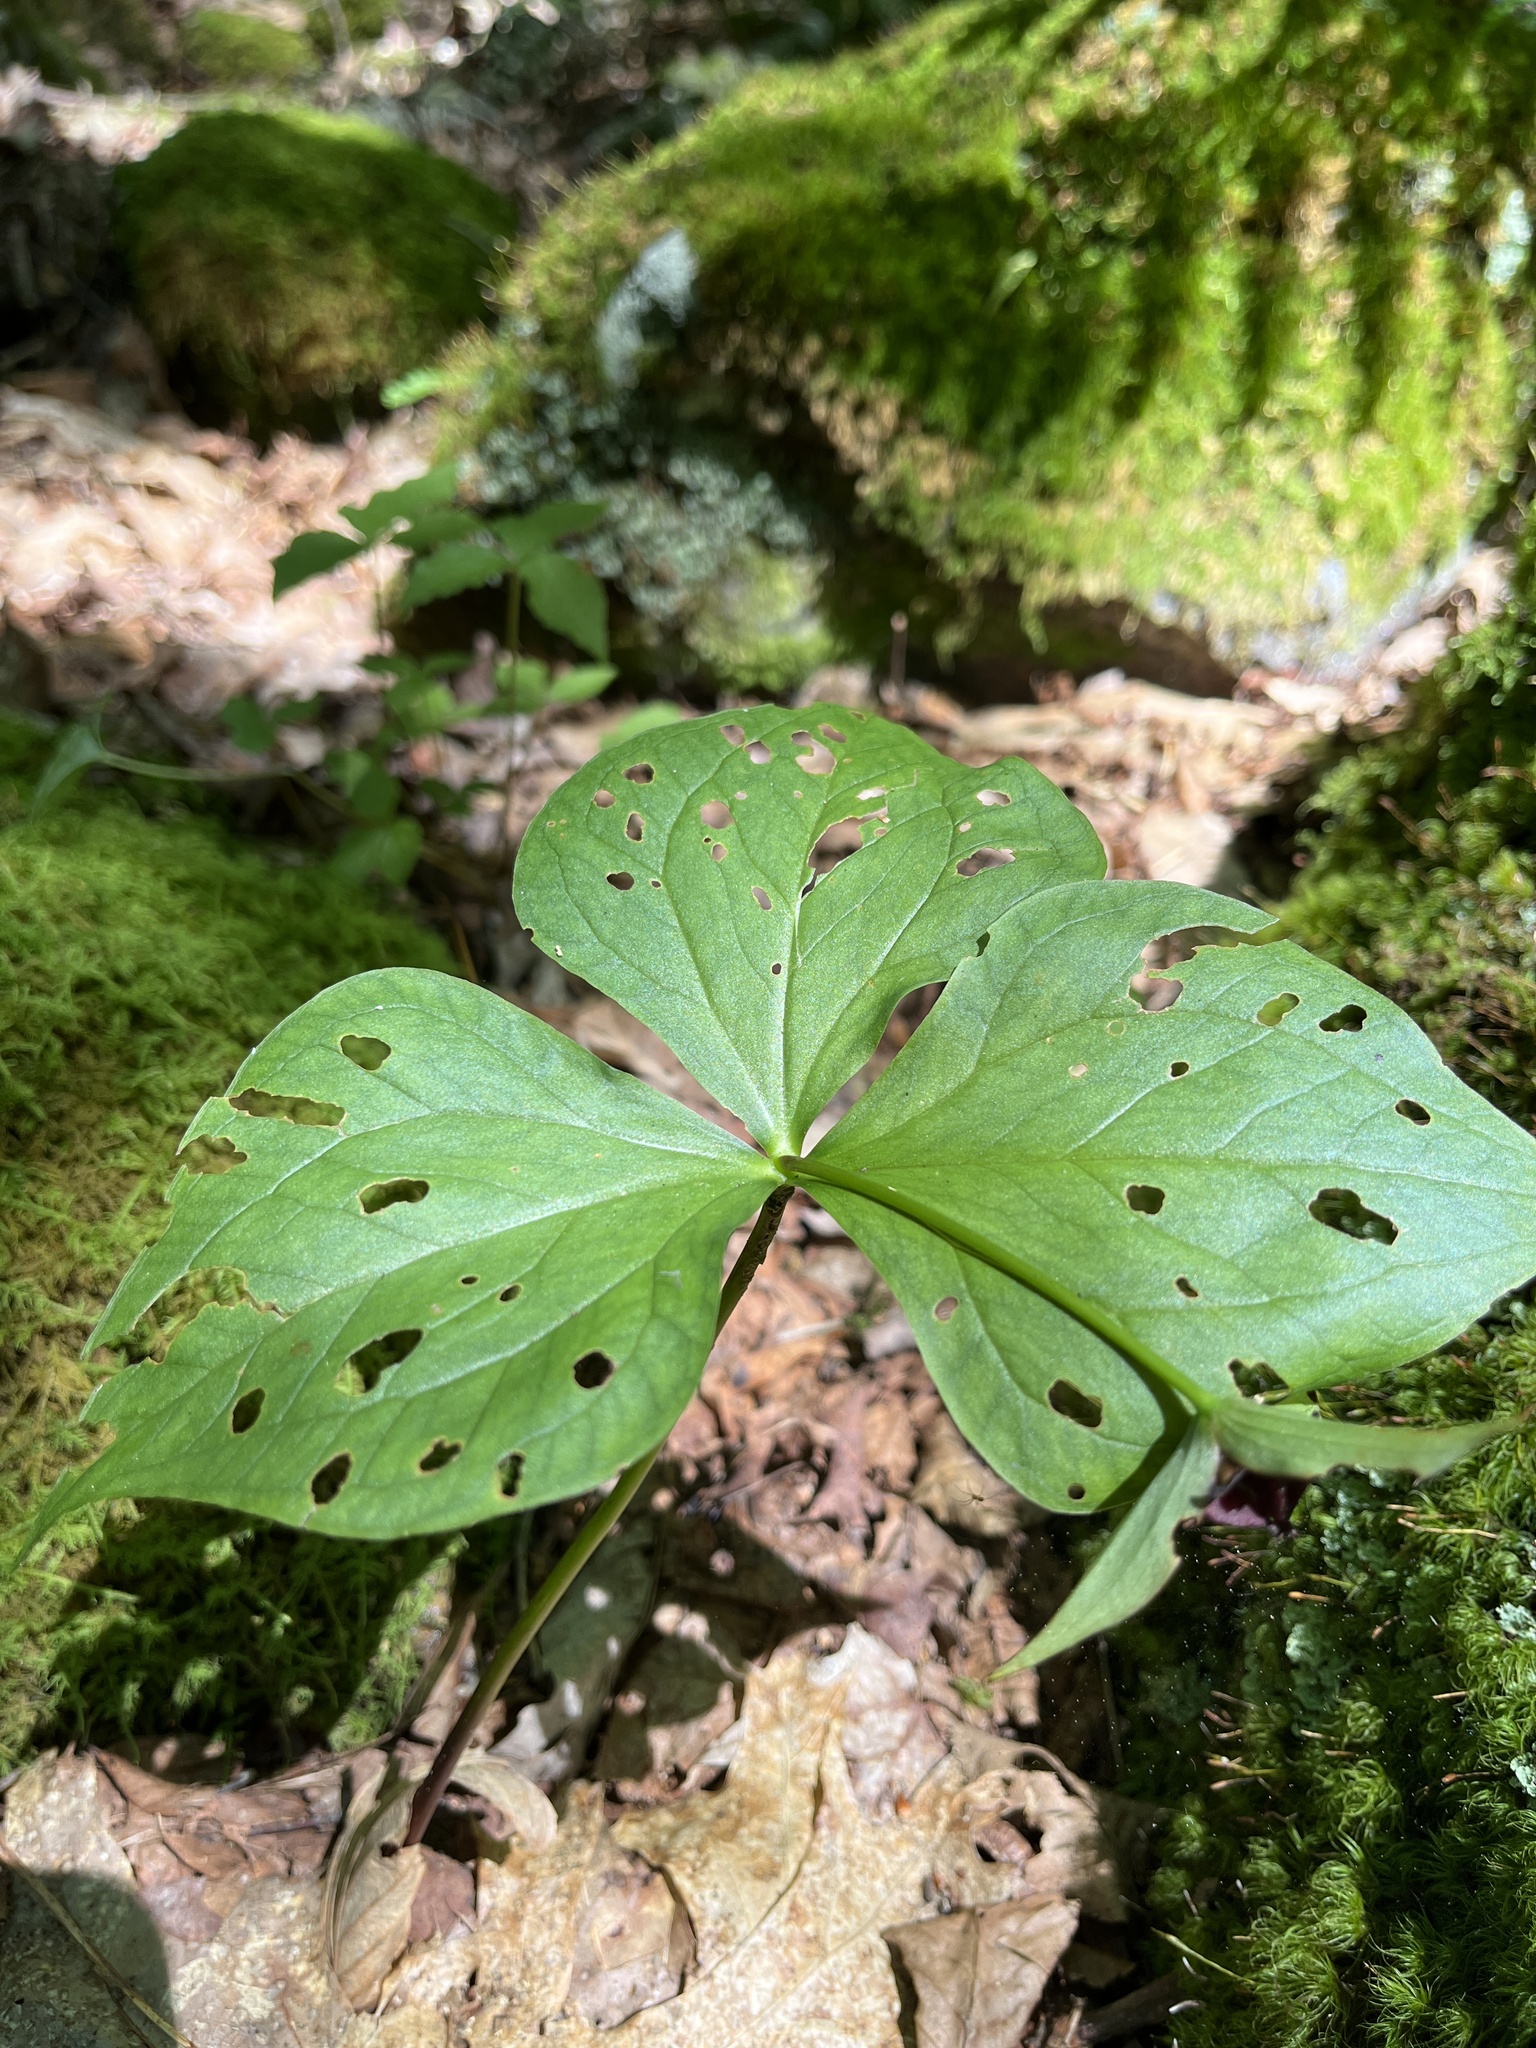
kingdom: Plantae
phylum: Tracheophyta
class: Liliopsida
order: Liliales
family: Melanthiaceae
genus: Trillium
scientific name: Trillium erectum
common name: Purple trillium
